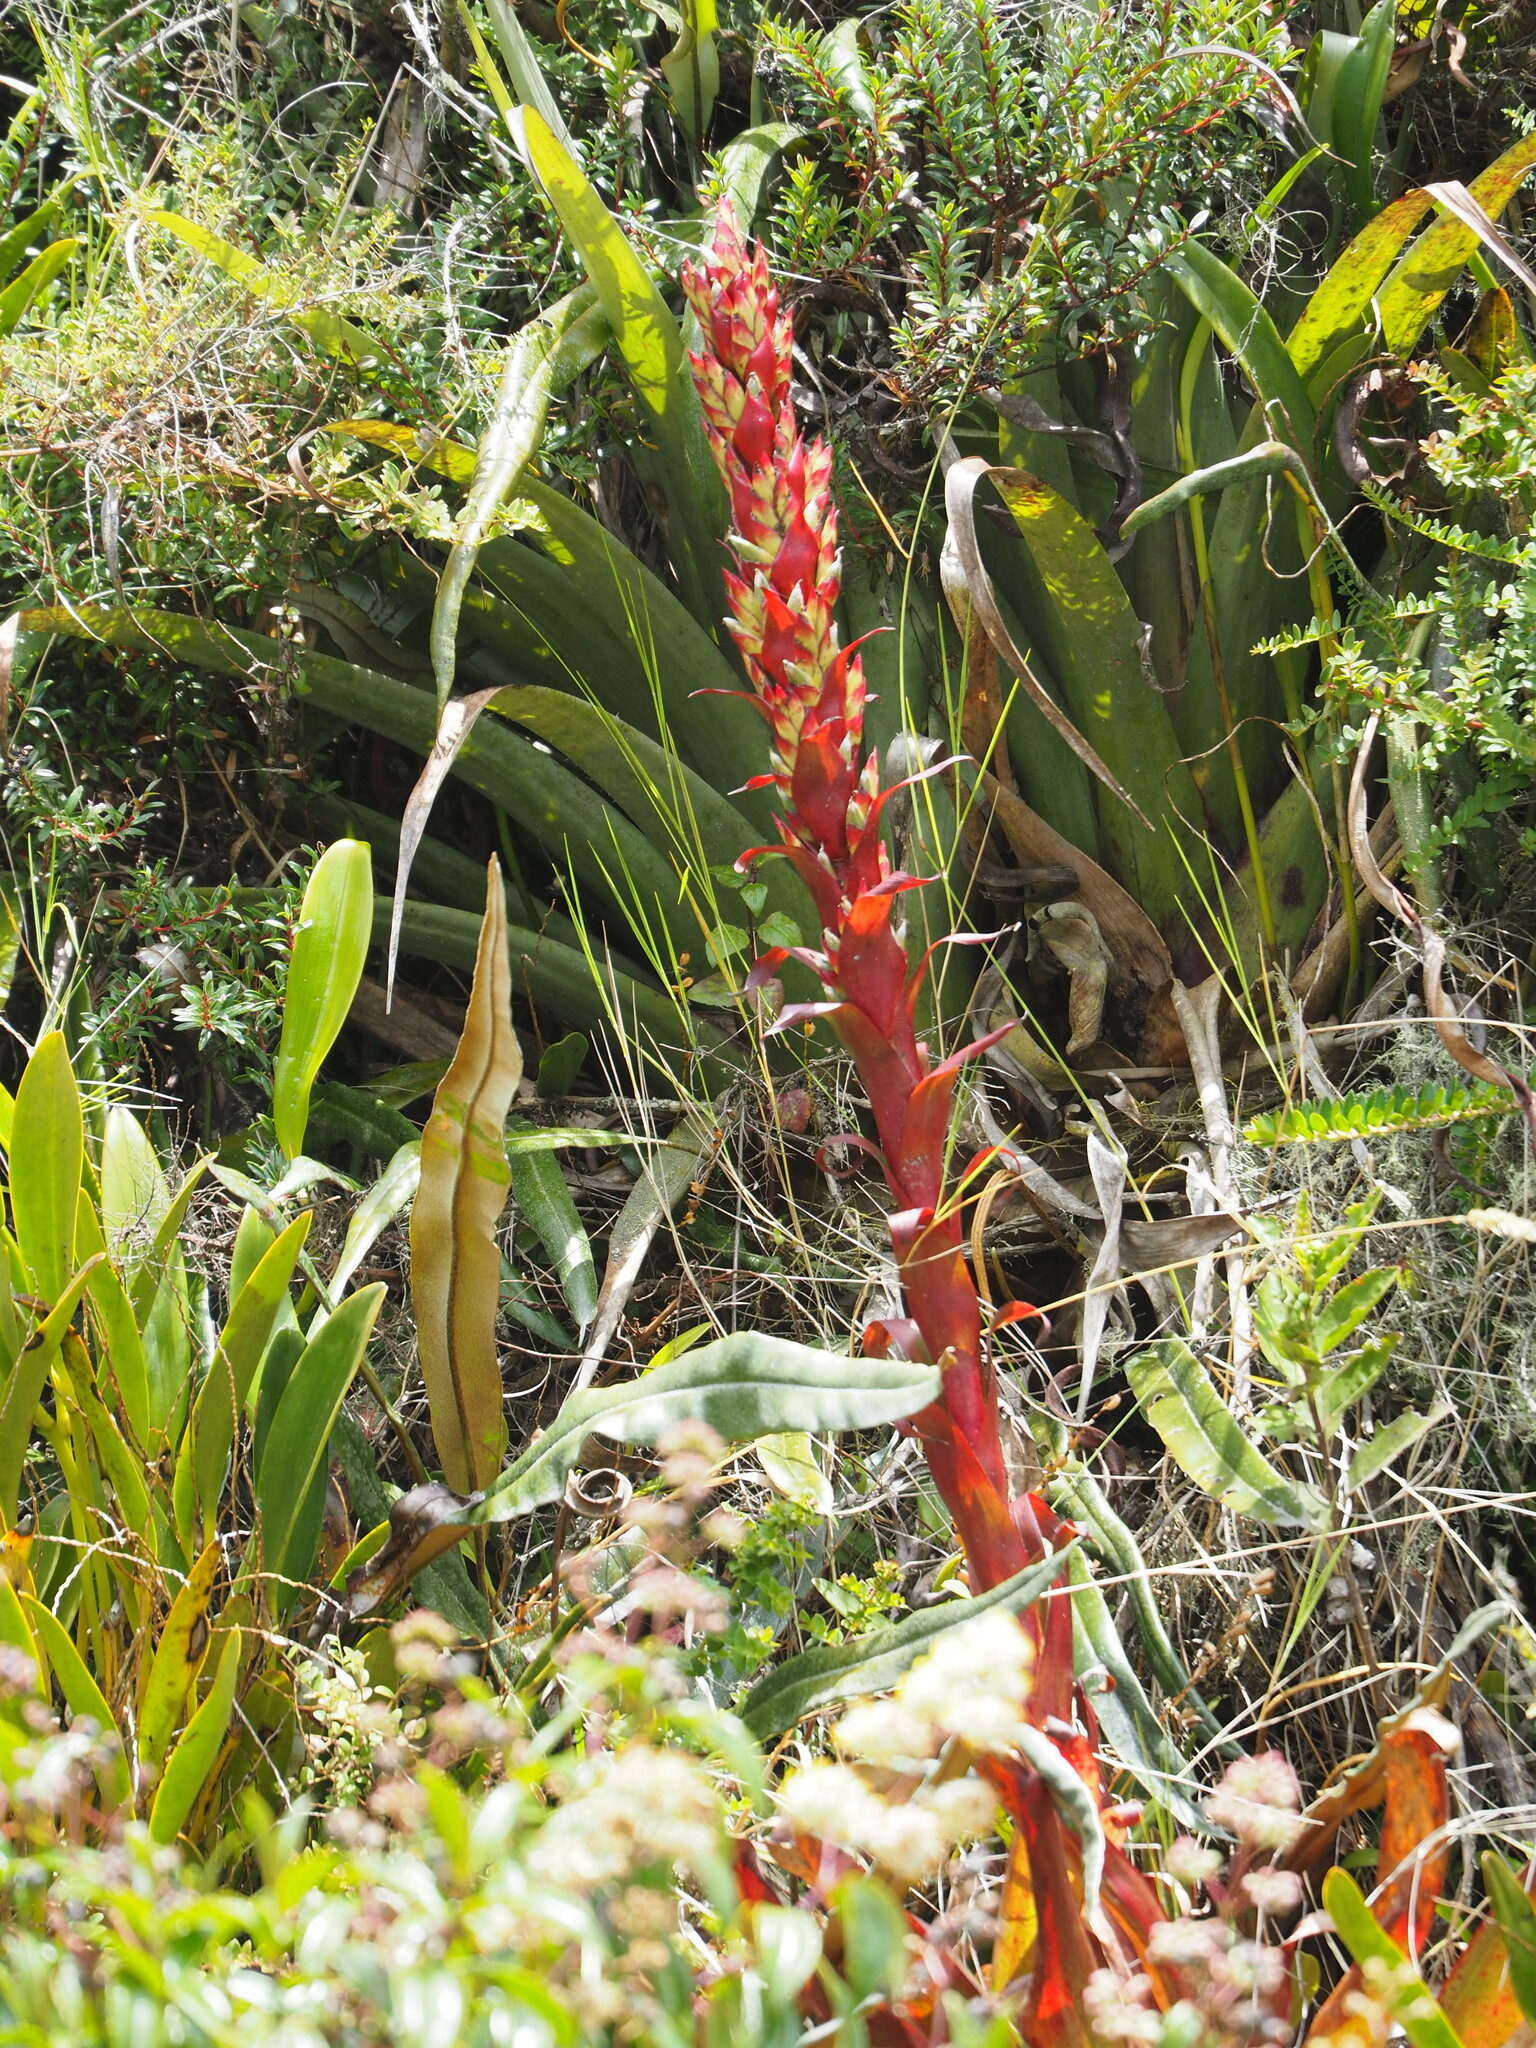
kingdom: Plantae
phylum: Tracheophyta
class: Liliopsida
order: Poales
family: Bromeliaceae
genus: Tillandsia
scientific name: Tillandsia pastensis
